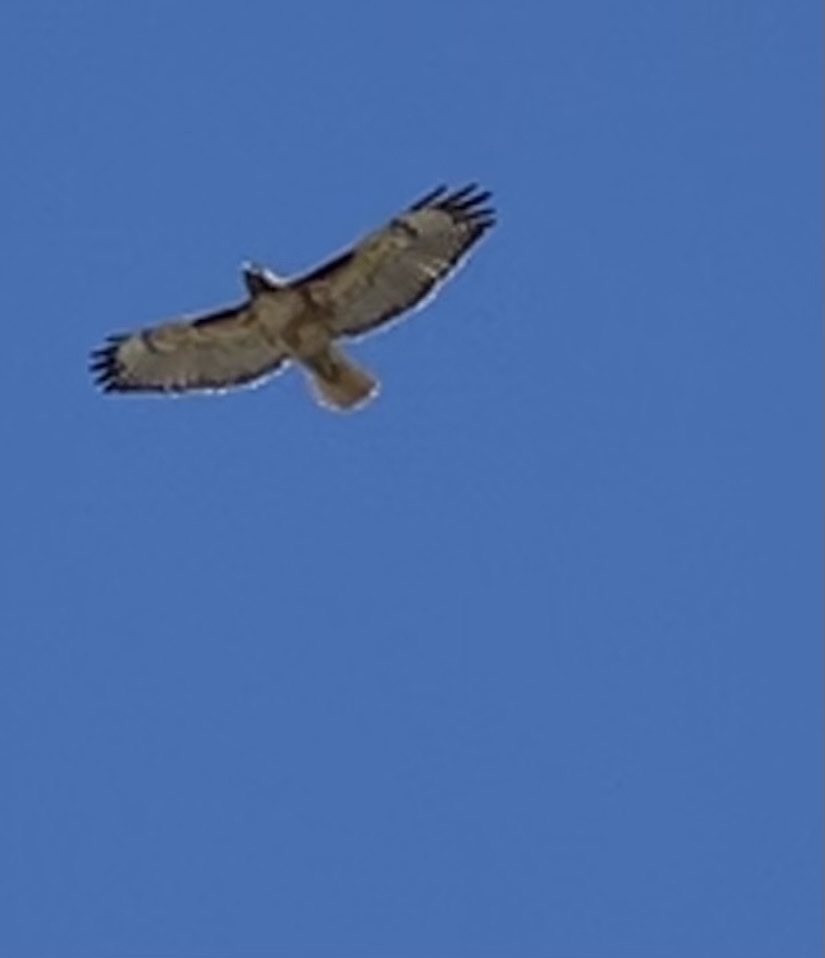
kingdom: Animalia
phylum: Chordata
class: Aves
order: Accipitriformes
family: Accipitridae
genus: Buteo
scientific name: Buteo jamaicensis
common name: Red-tailed hawk
